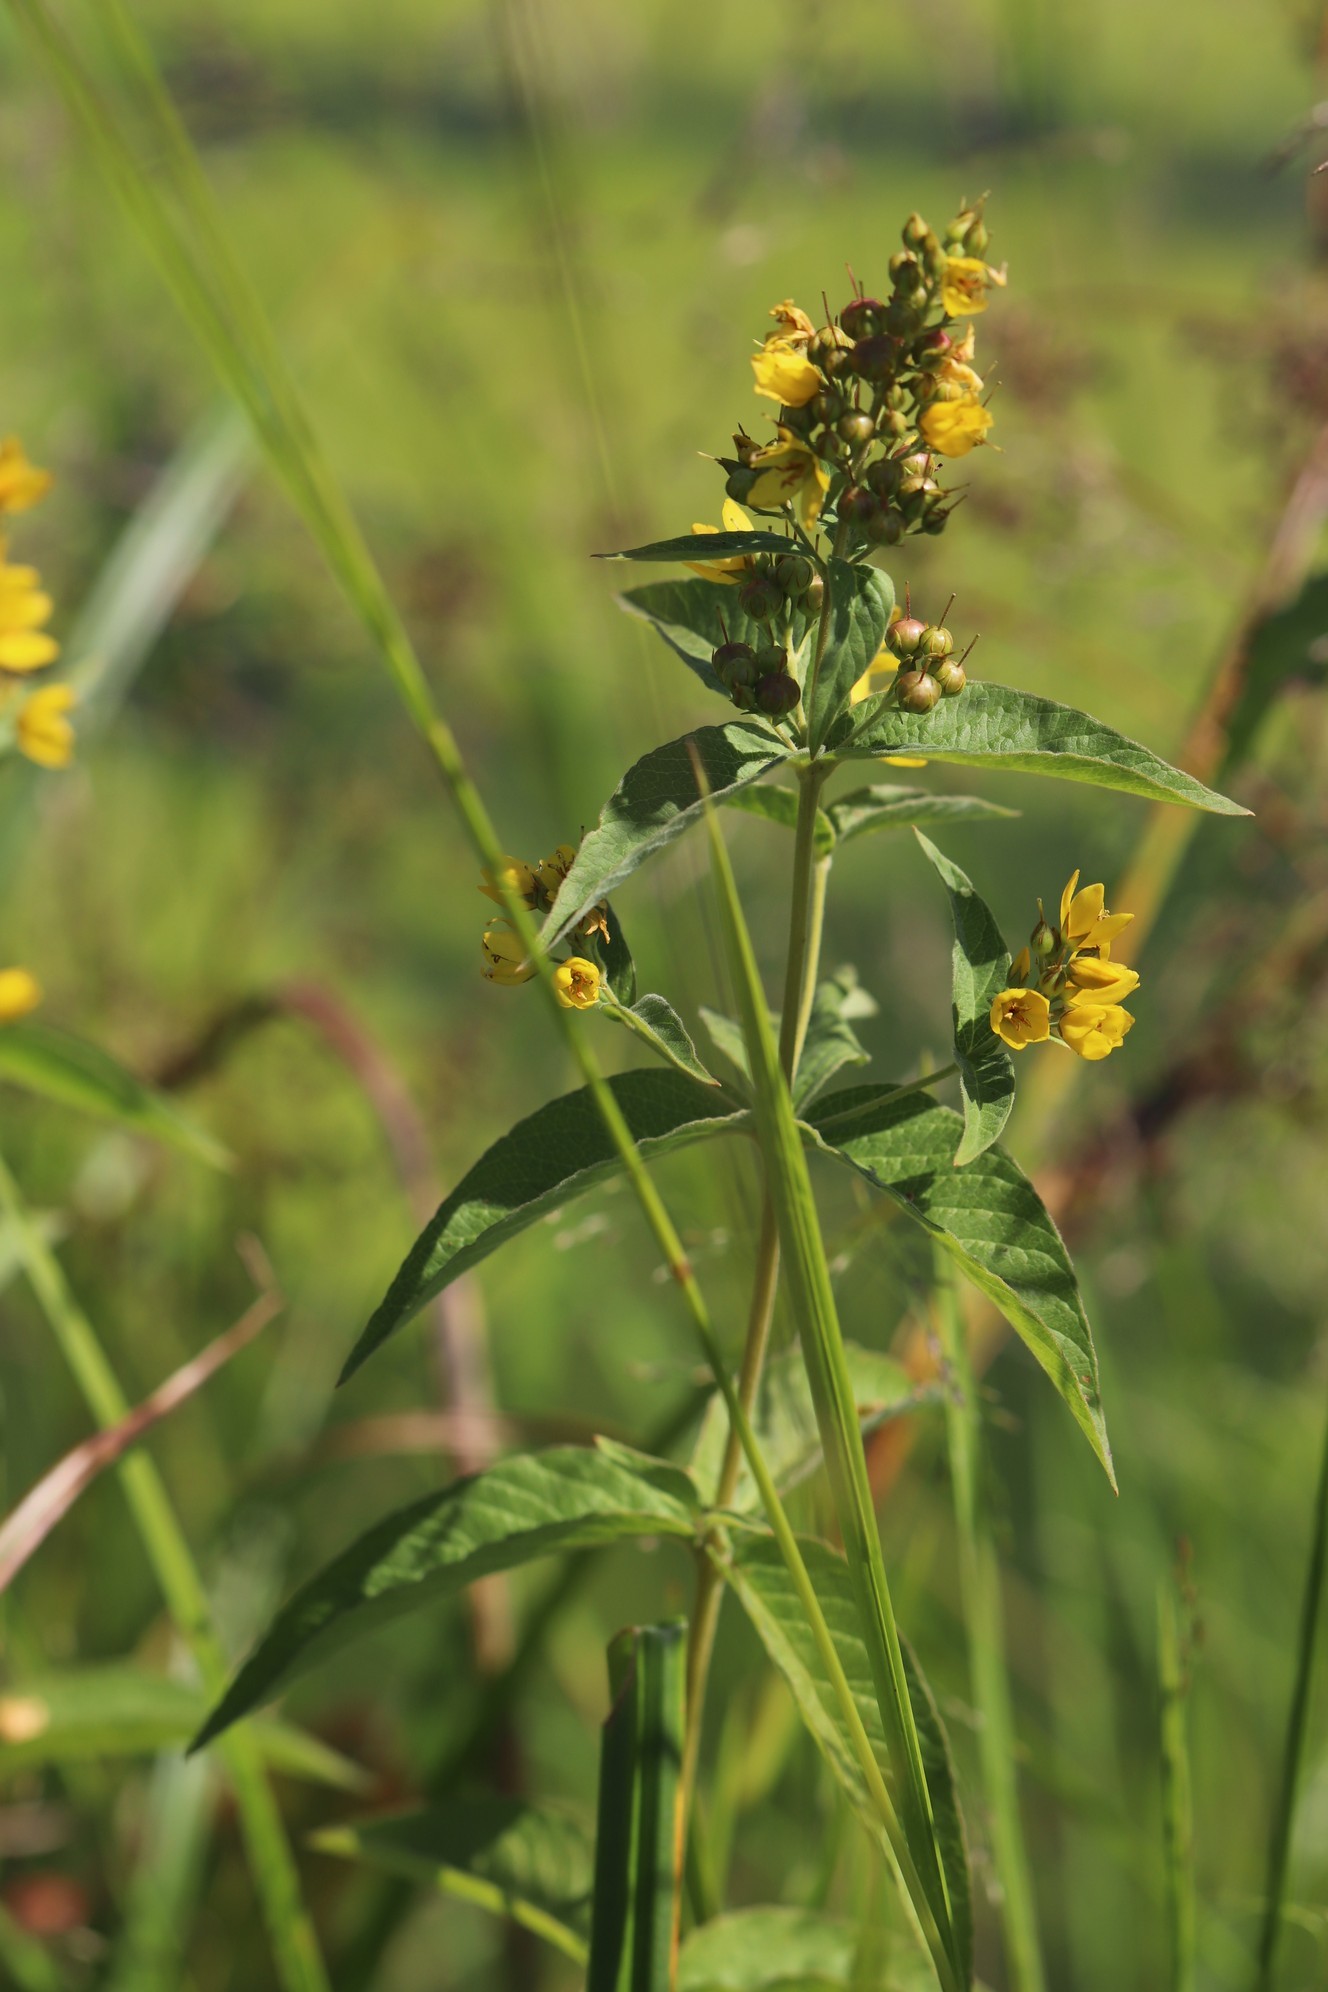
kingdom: Plantae
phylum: Tracheophyta
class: Magnoliopsida
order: Ericales
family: Primulaceae
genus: Lysimachia
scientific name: Lysimachia vulgaris
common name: Yellow loosestrife
